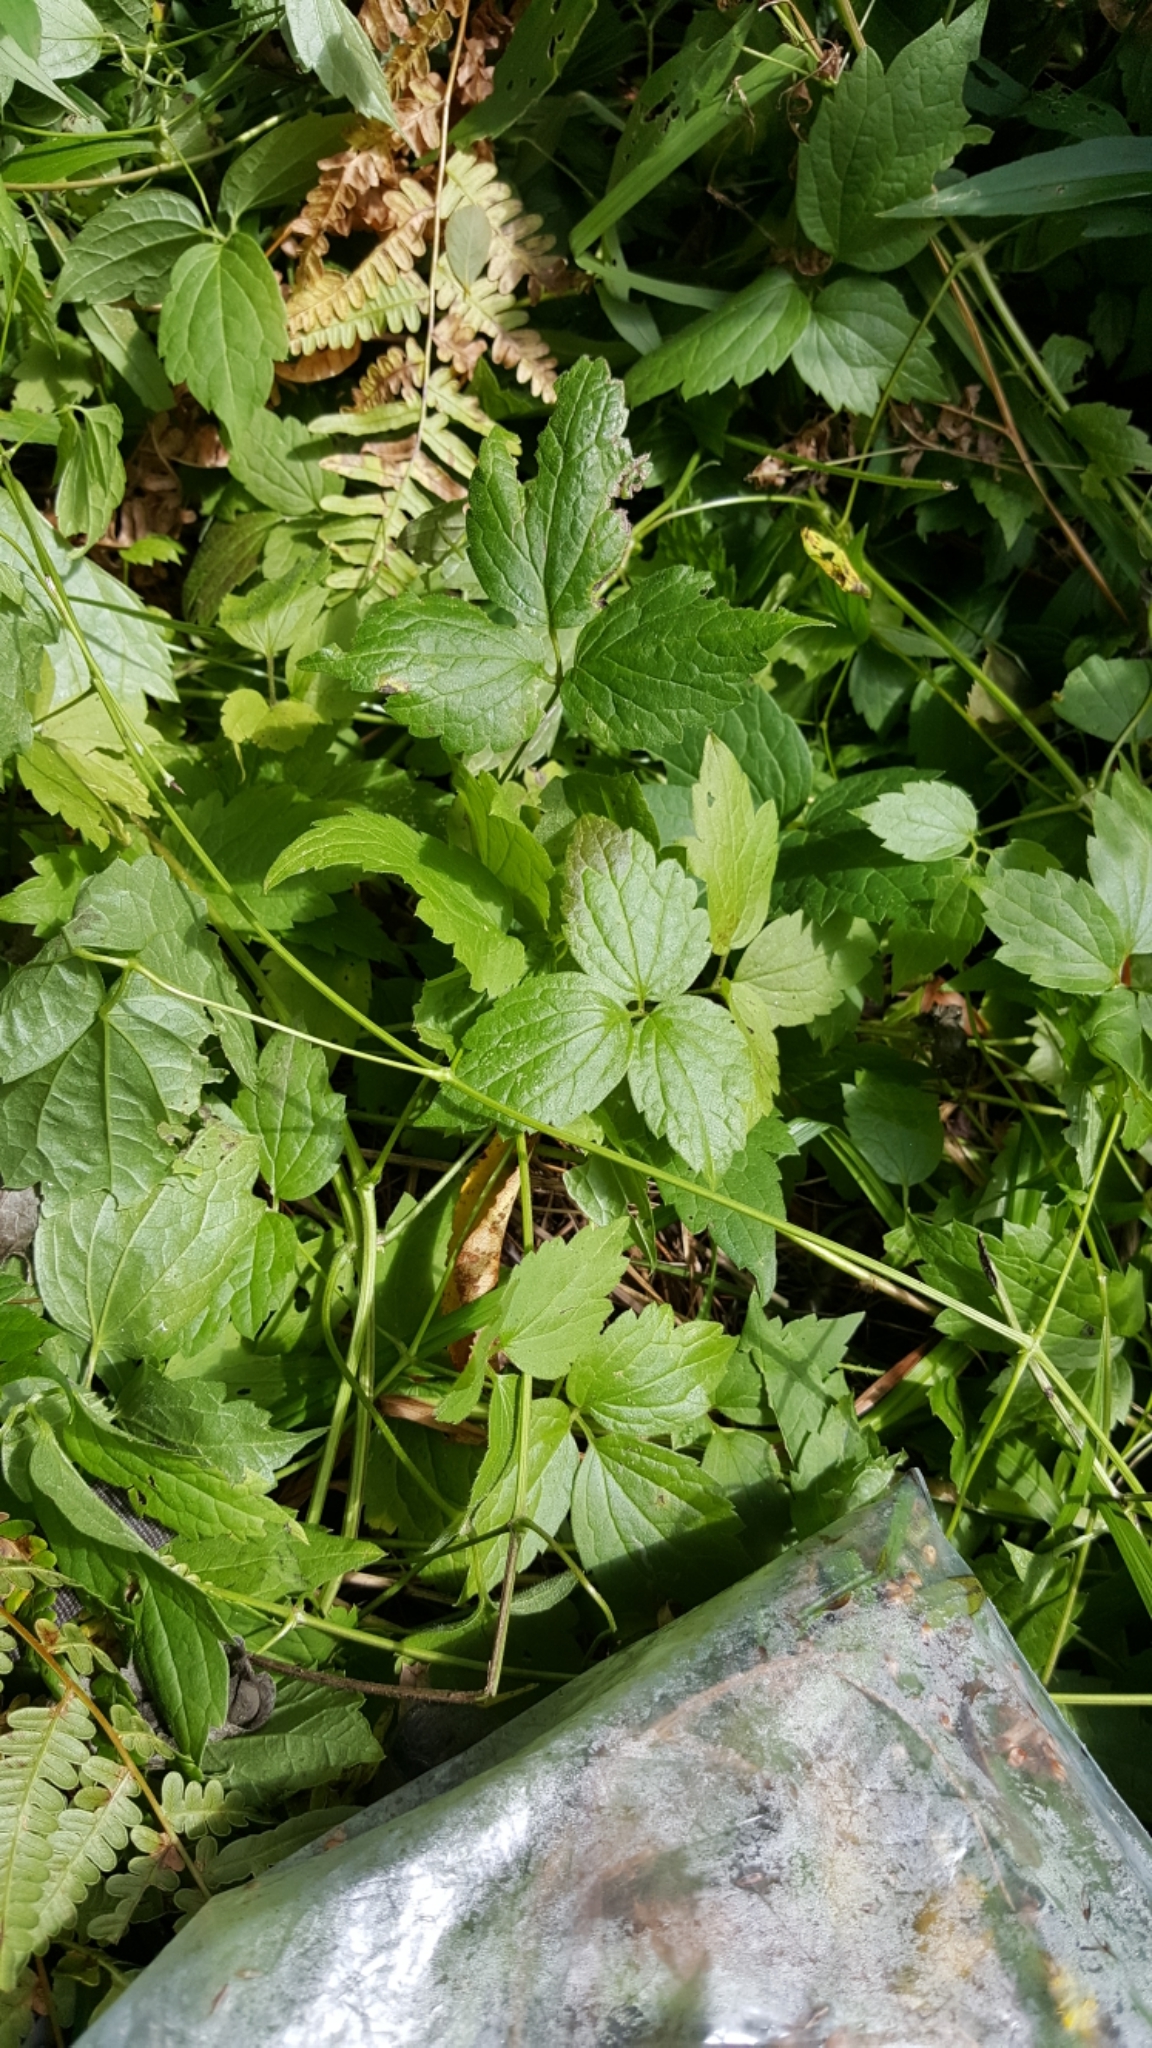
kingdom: Plantae
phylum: Tracheophyta
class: Magnoliopsida
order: Ranunculales
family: Ranunculaceae
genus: Clematis
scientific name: Clematis virginiana
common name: Virgin's-bower
